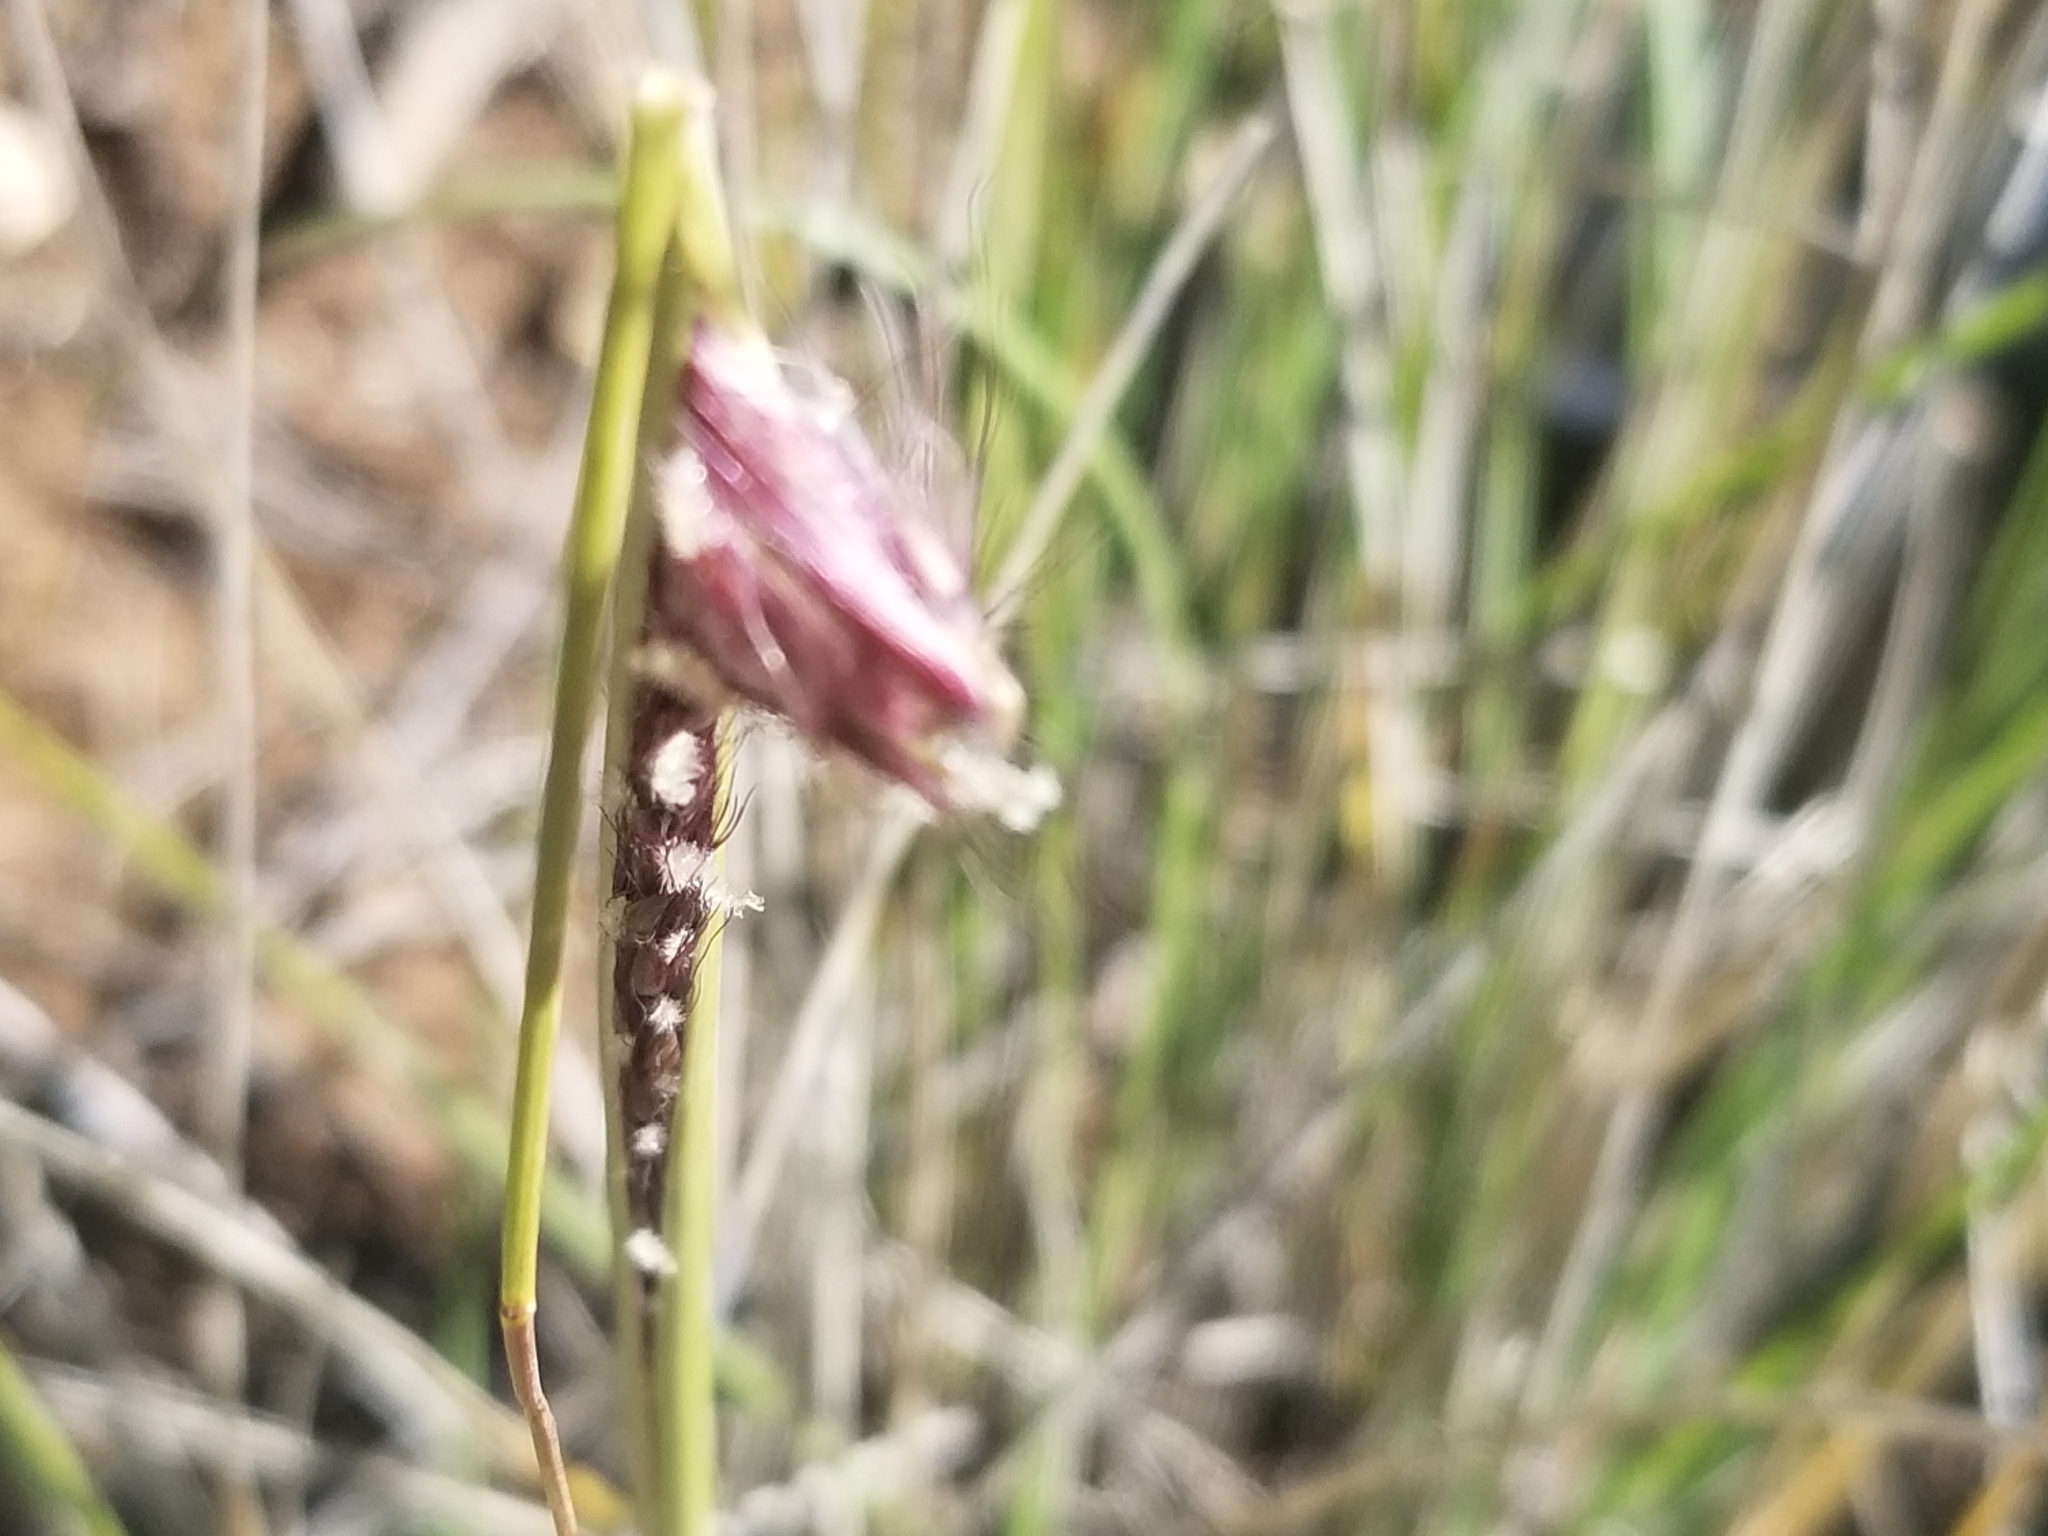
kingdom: Plantae
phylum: Tracheophyta
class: Liliopsida
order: Poales
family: Poaceae
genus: Cenchrus
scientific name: Cenchrus setaceus
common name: Crimson fountaingrass
